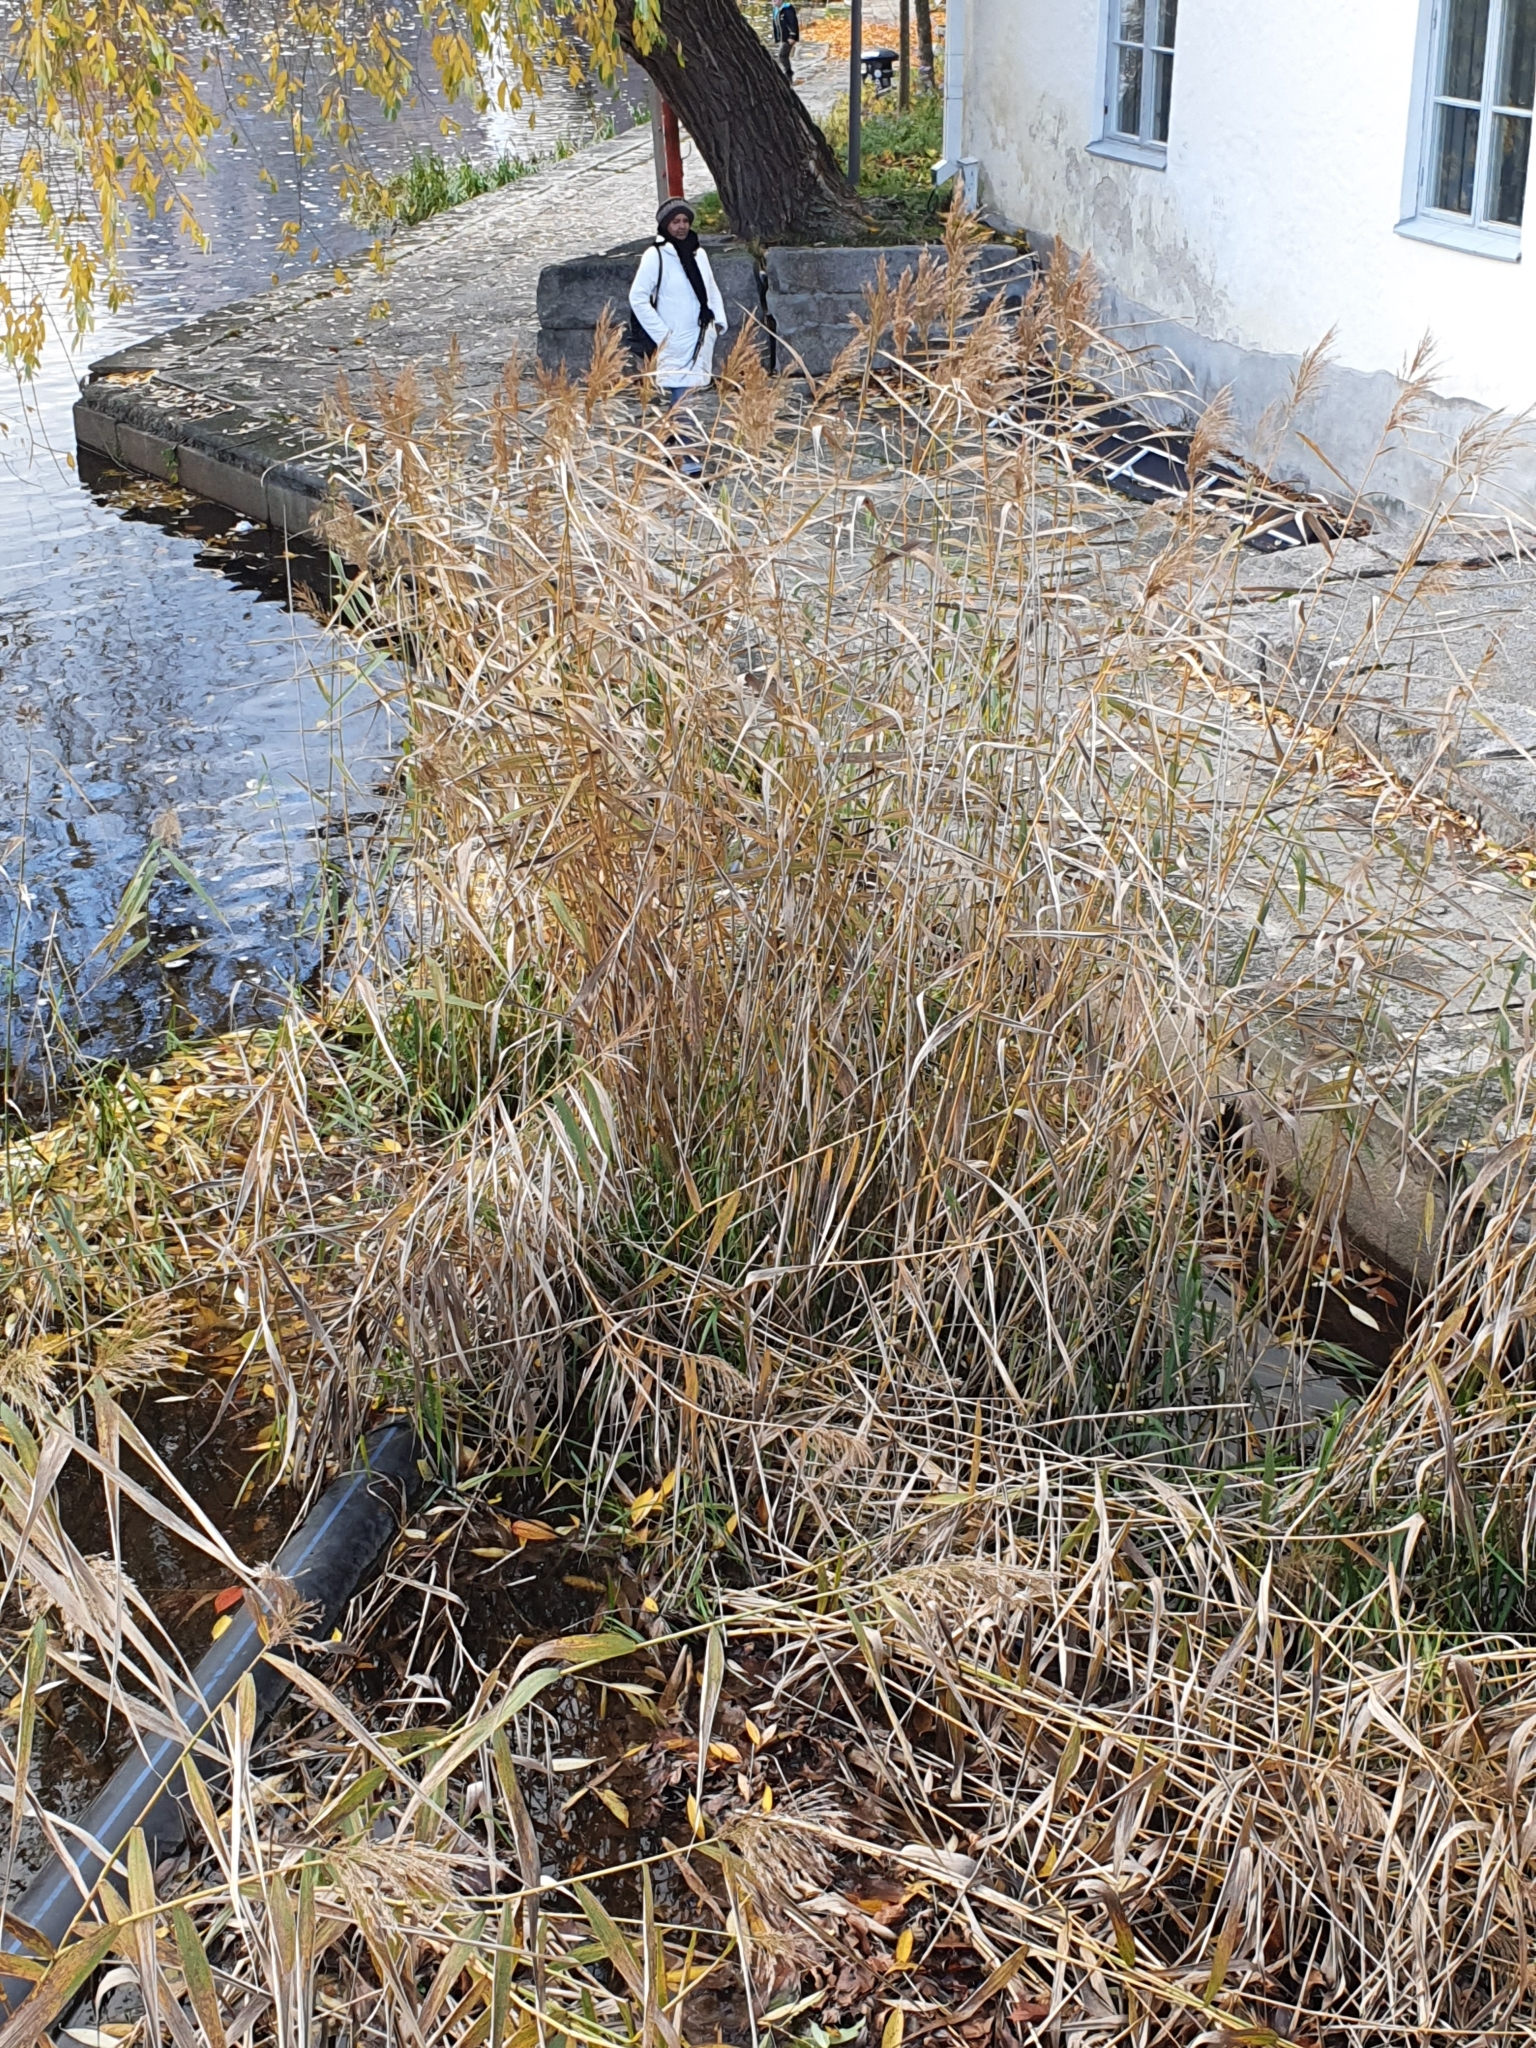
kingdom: Plantae
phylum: Tracheophyta
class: Liliopsida
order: Poales
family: Poaceae
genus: Phragmites
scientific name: Phragmites australis
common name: Common reed
